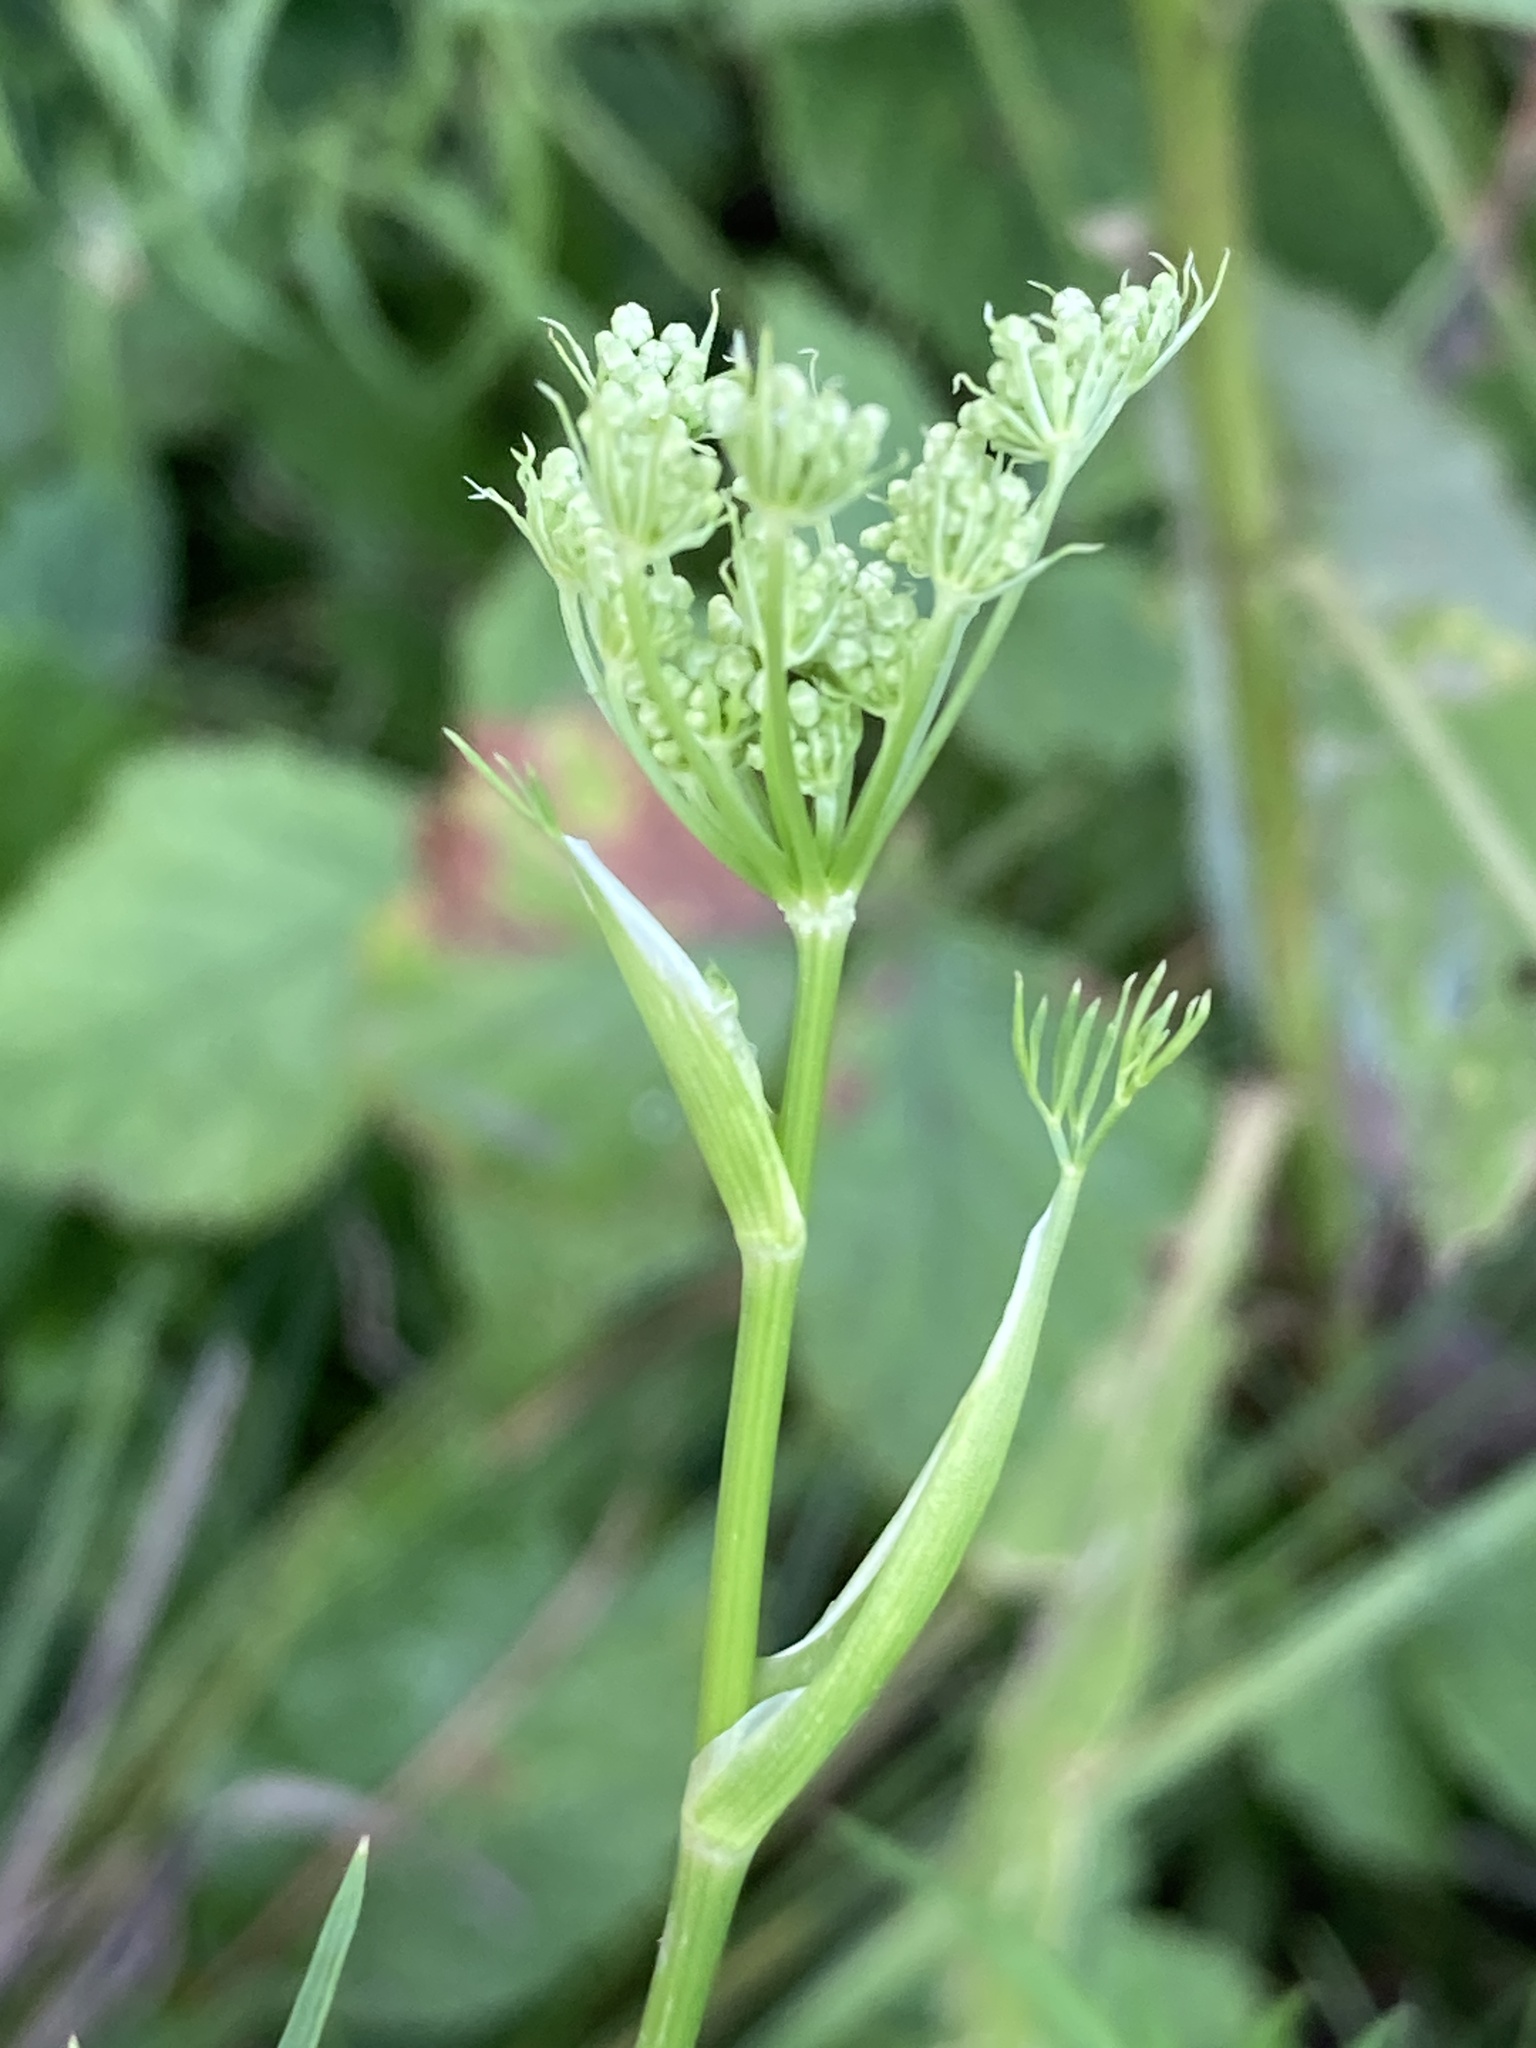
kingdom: Plantae
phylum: Tracheophyta
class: Magnoliopsida
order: Apiales
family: Apiaceae
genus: Cenolophium
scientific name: Cenolophium fischeri
